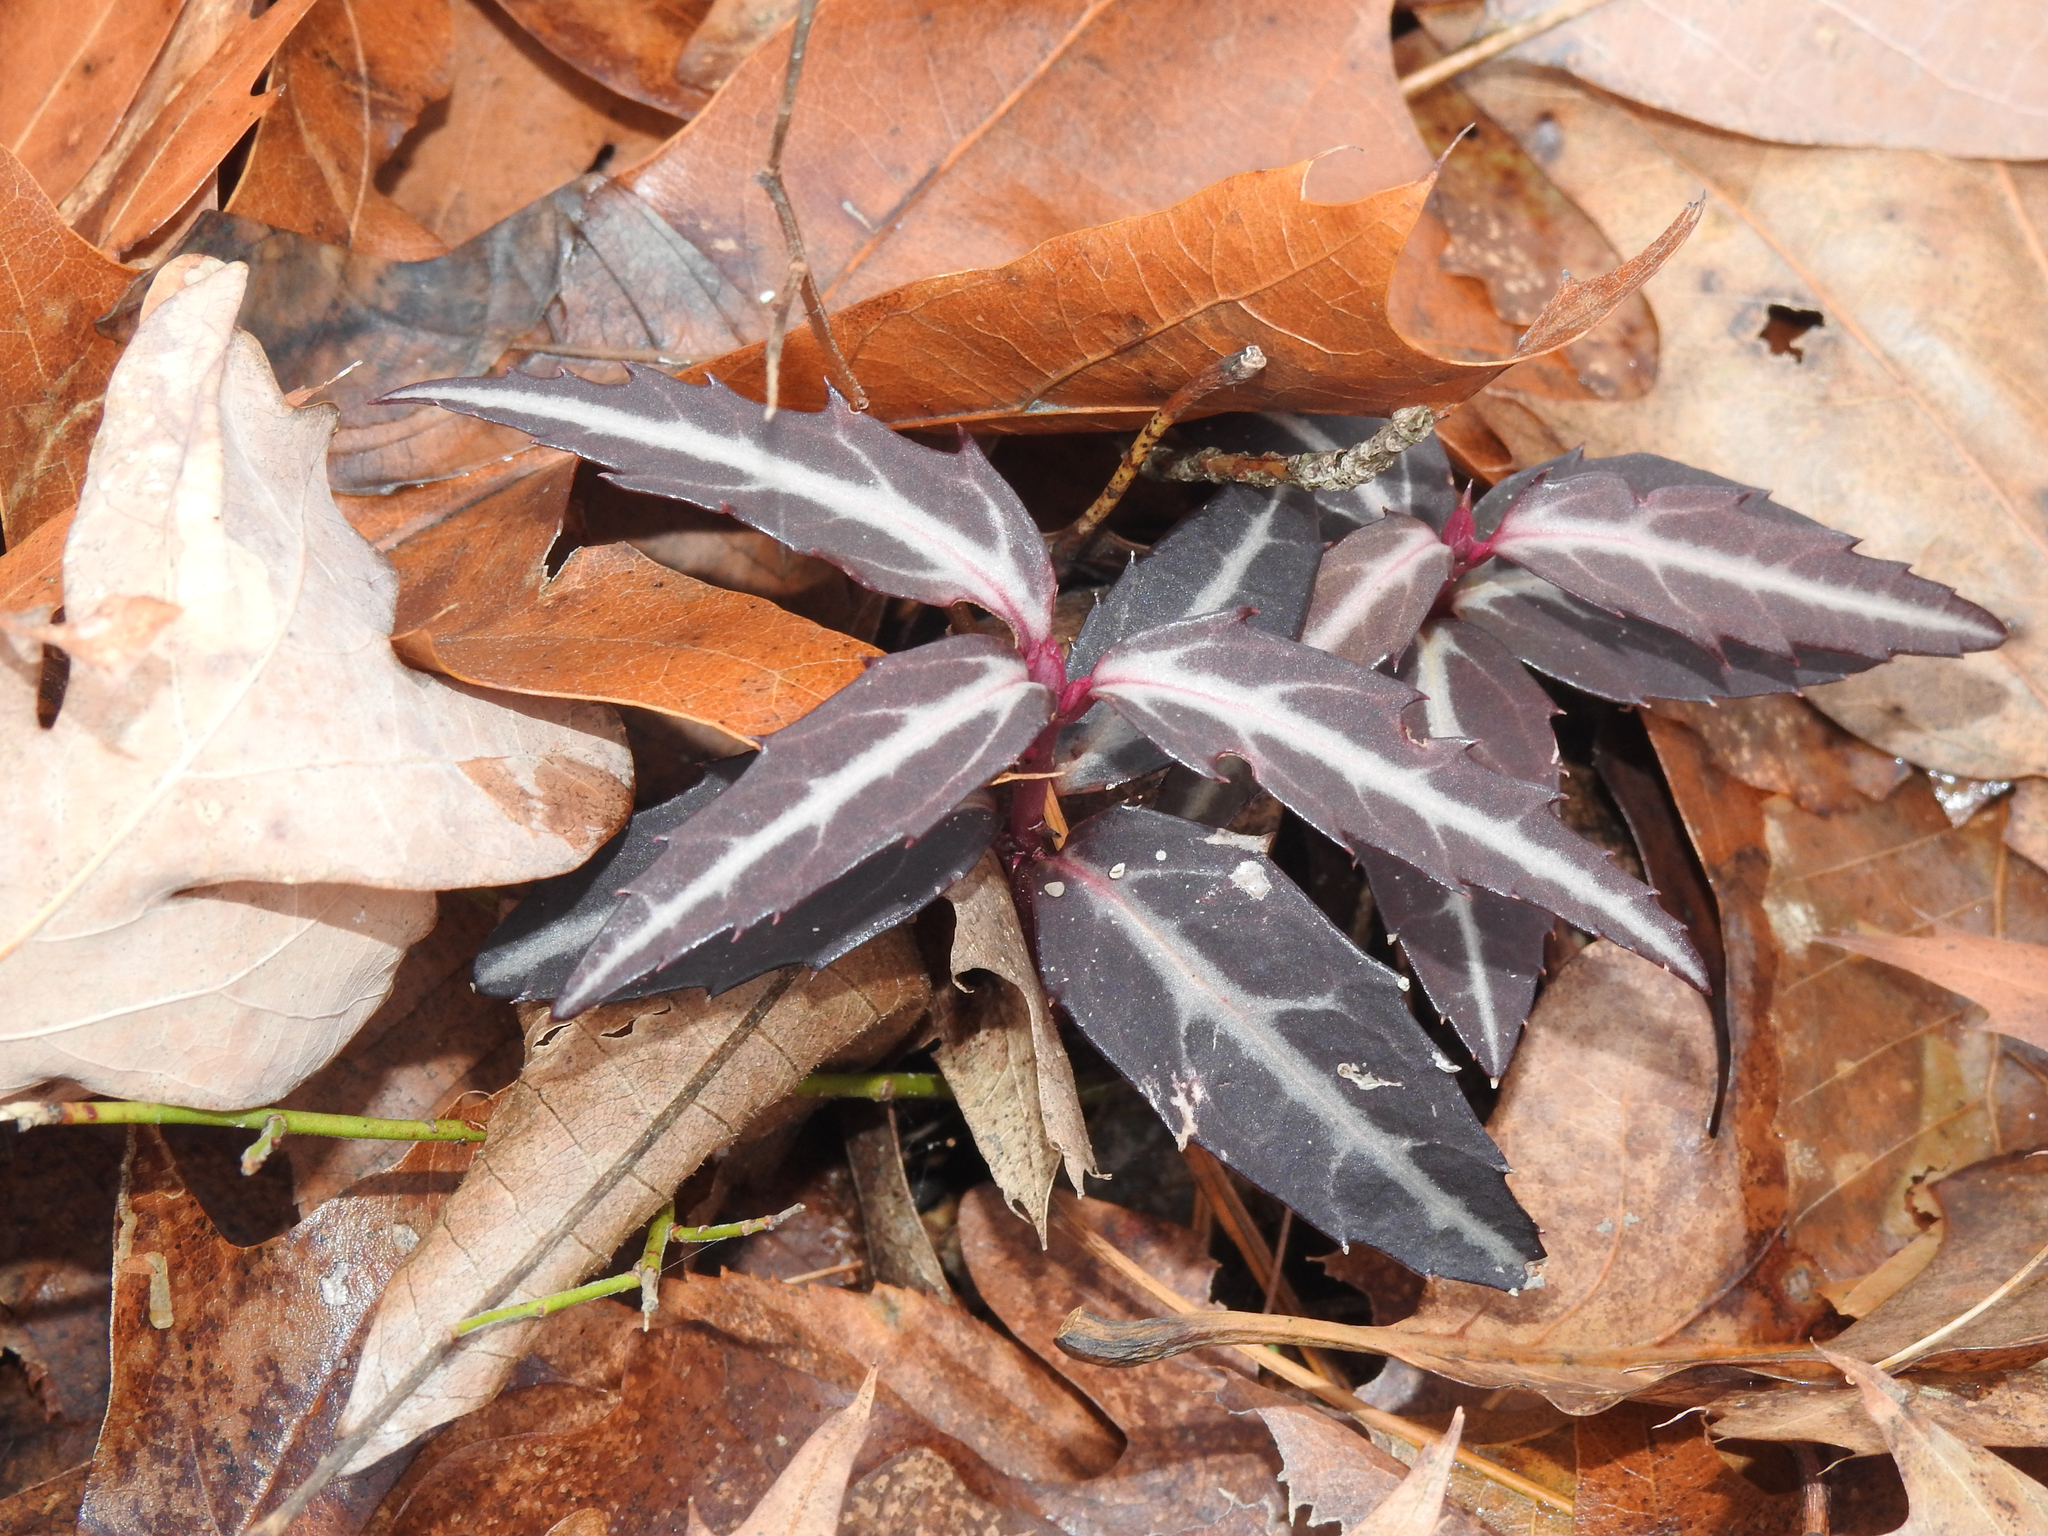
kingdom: Plantae
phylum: Tracheophyta
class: Magnoliopsida
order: Ericales
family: Ericaceae
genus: Chimaphila
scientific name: Chimaphila maculata
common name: Spotted pipsissewa
